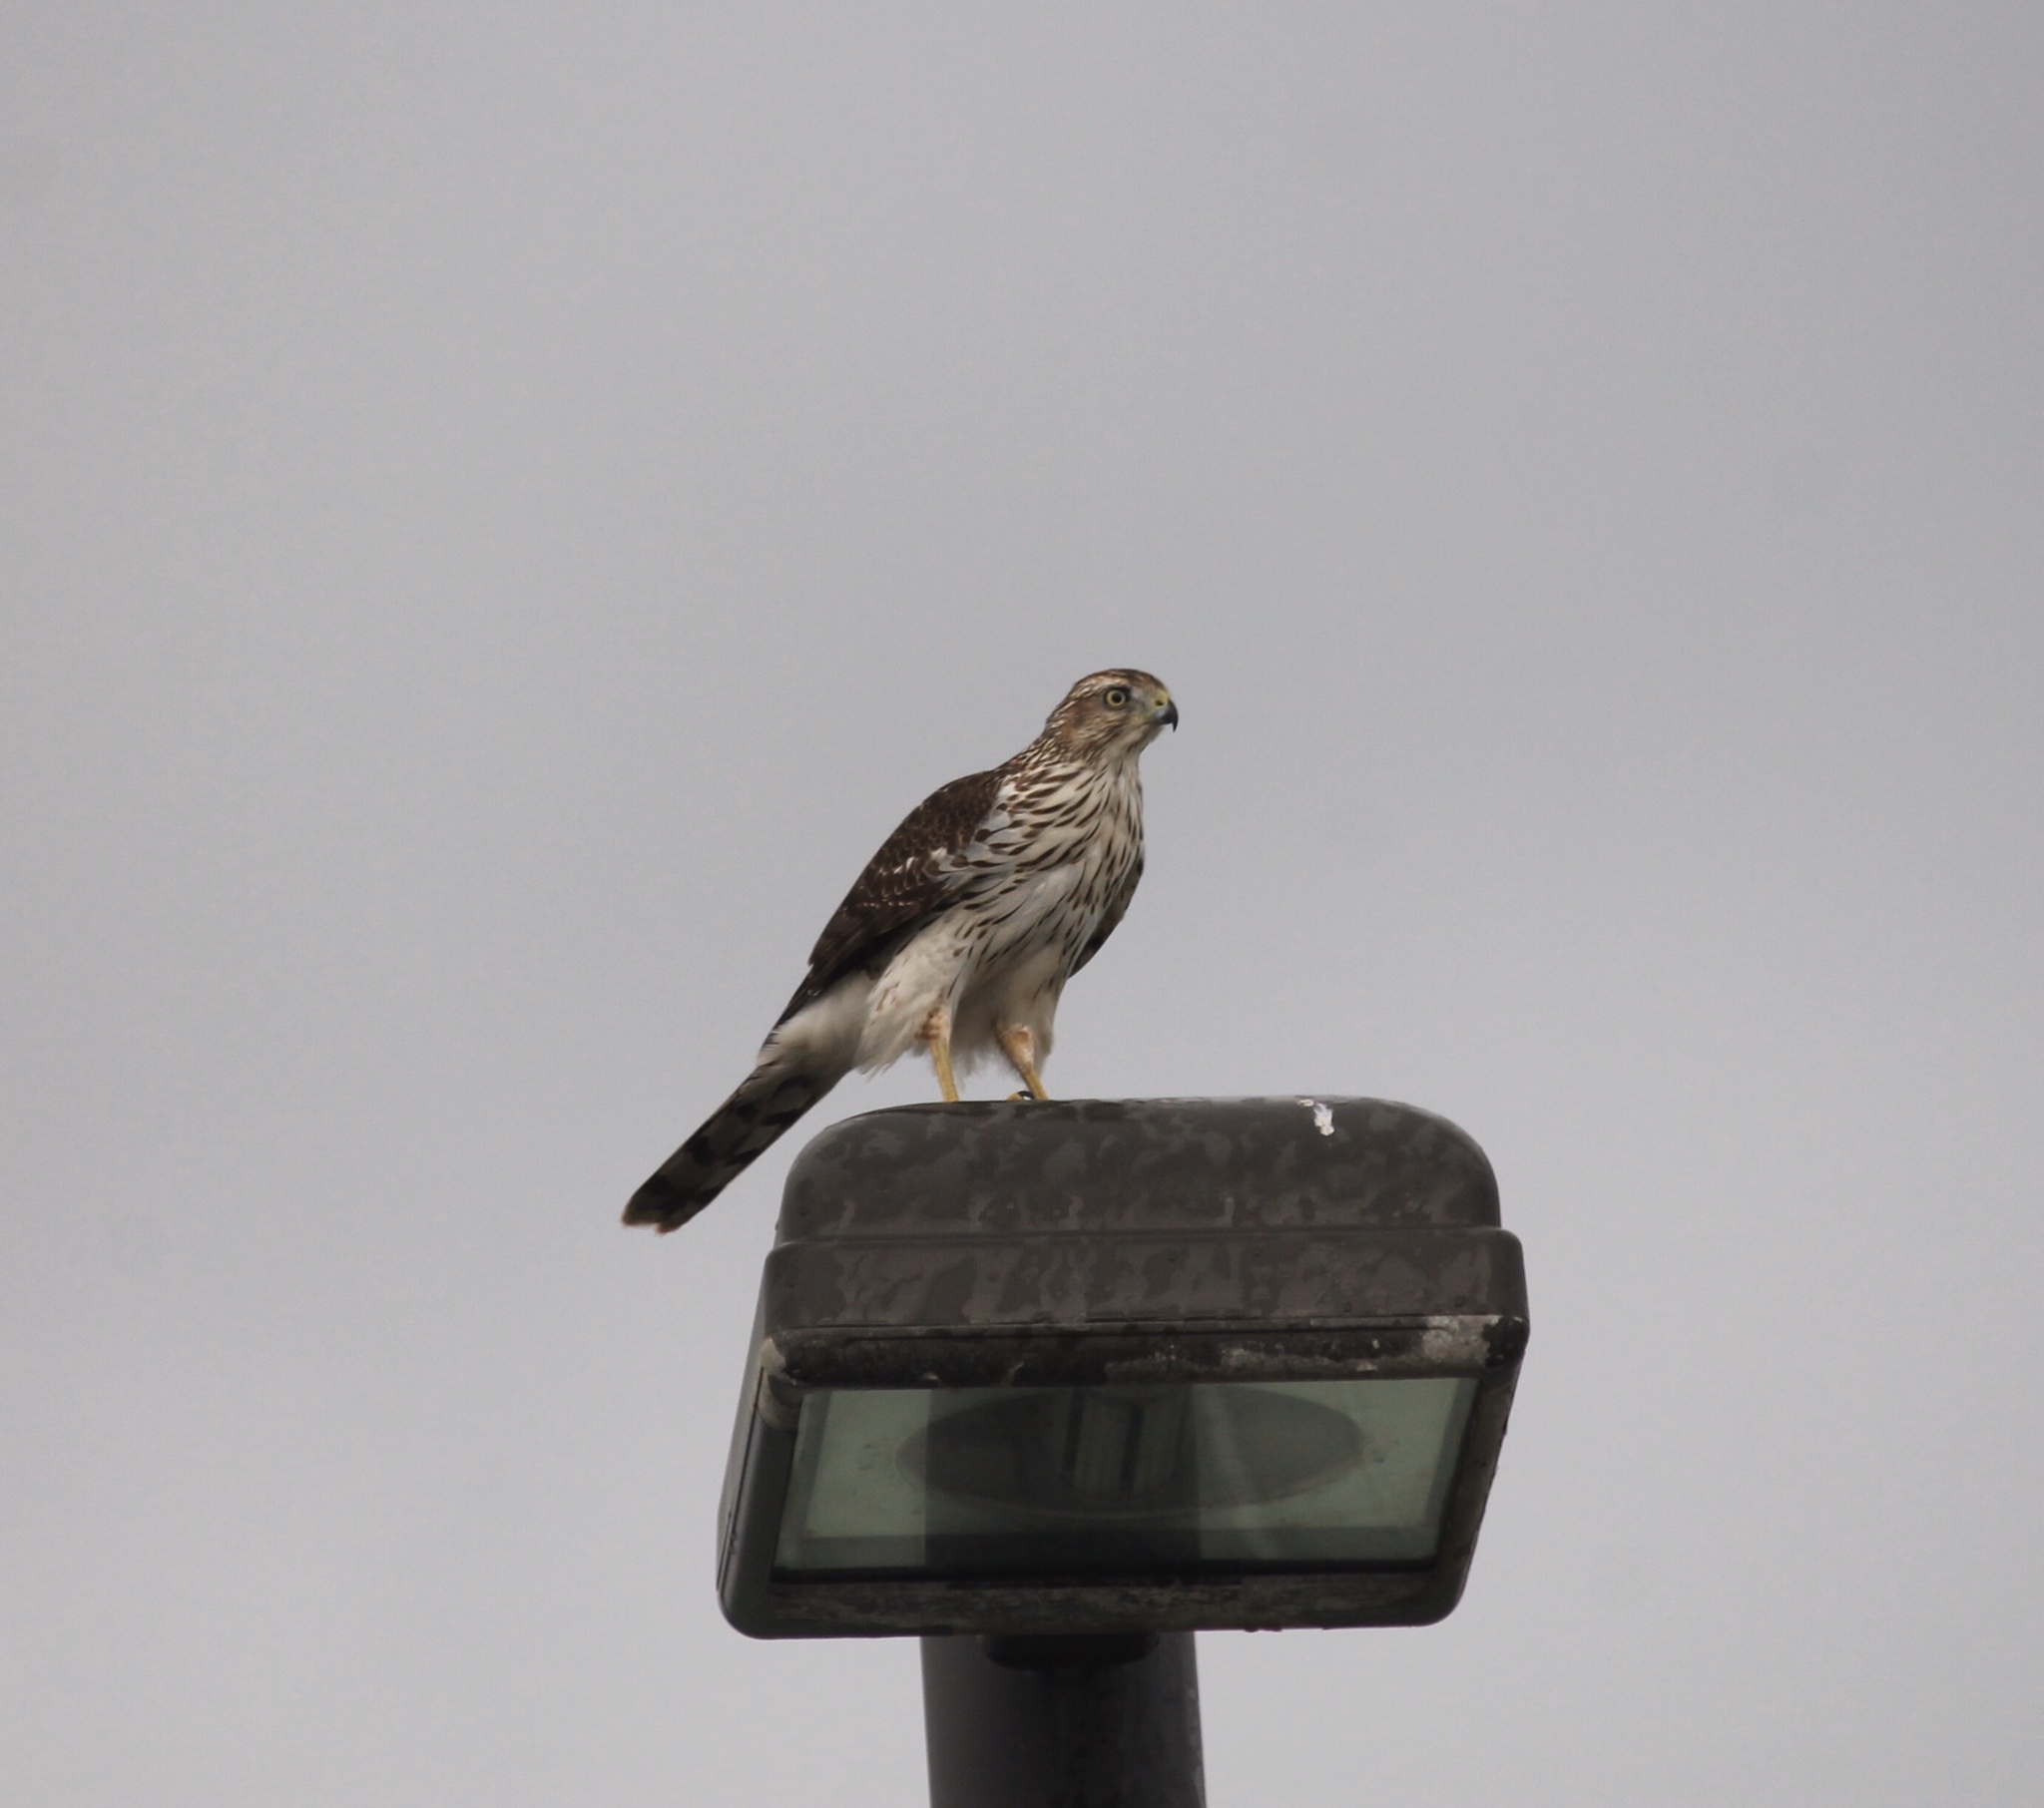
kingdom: Animalia
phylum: Chordata
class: Aves
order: Accipitriformes
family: Accipitridae
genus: Accipiter
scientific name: Accipiter cooperii
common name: Cooper's hawk
